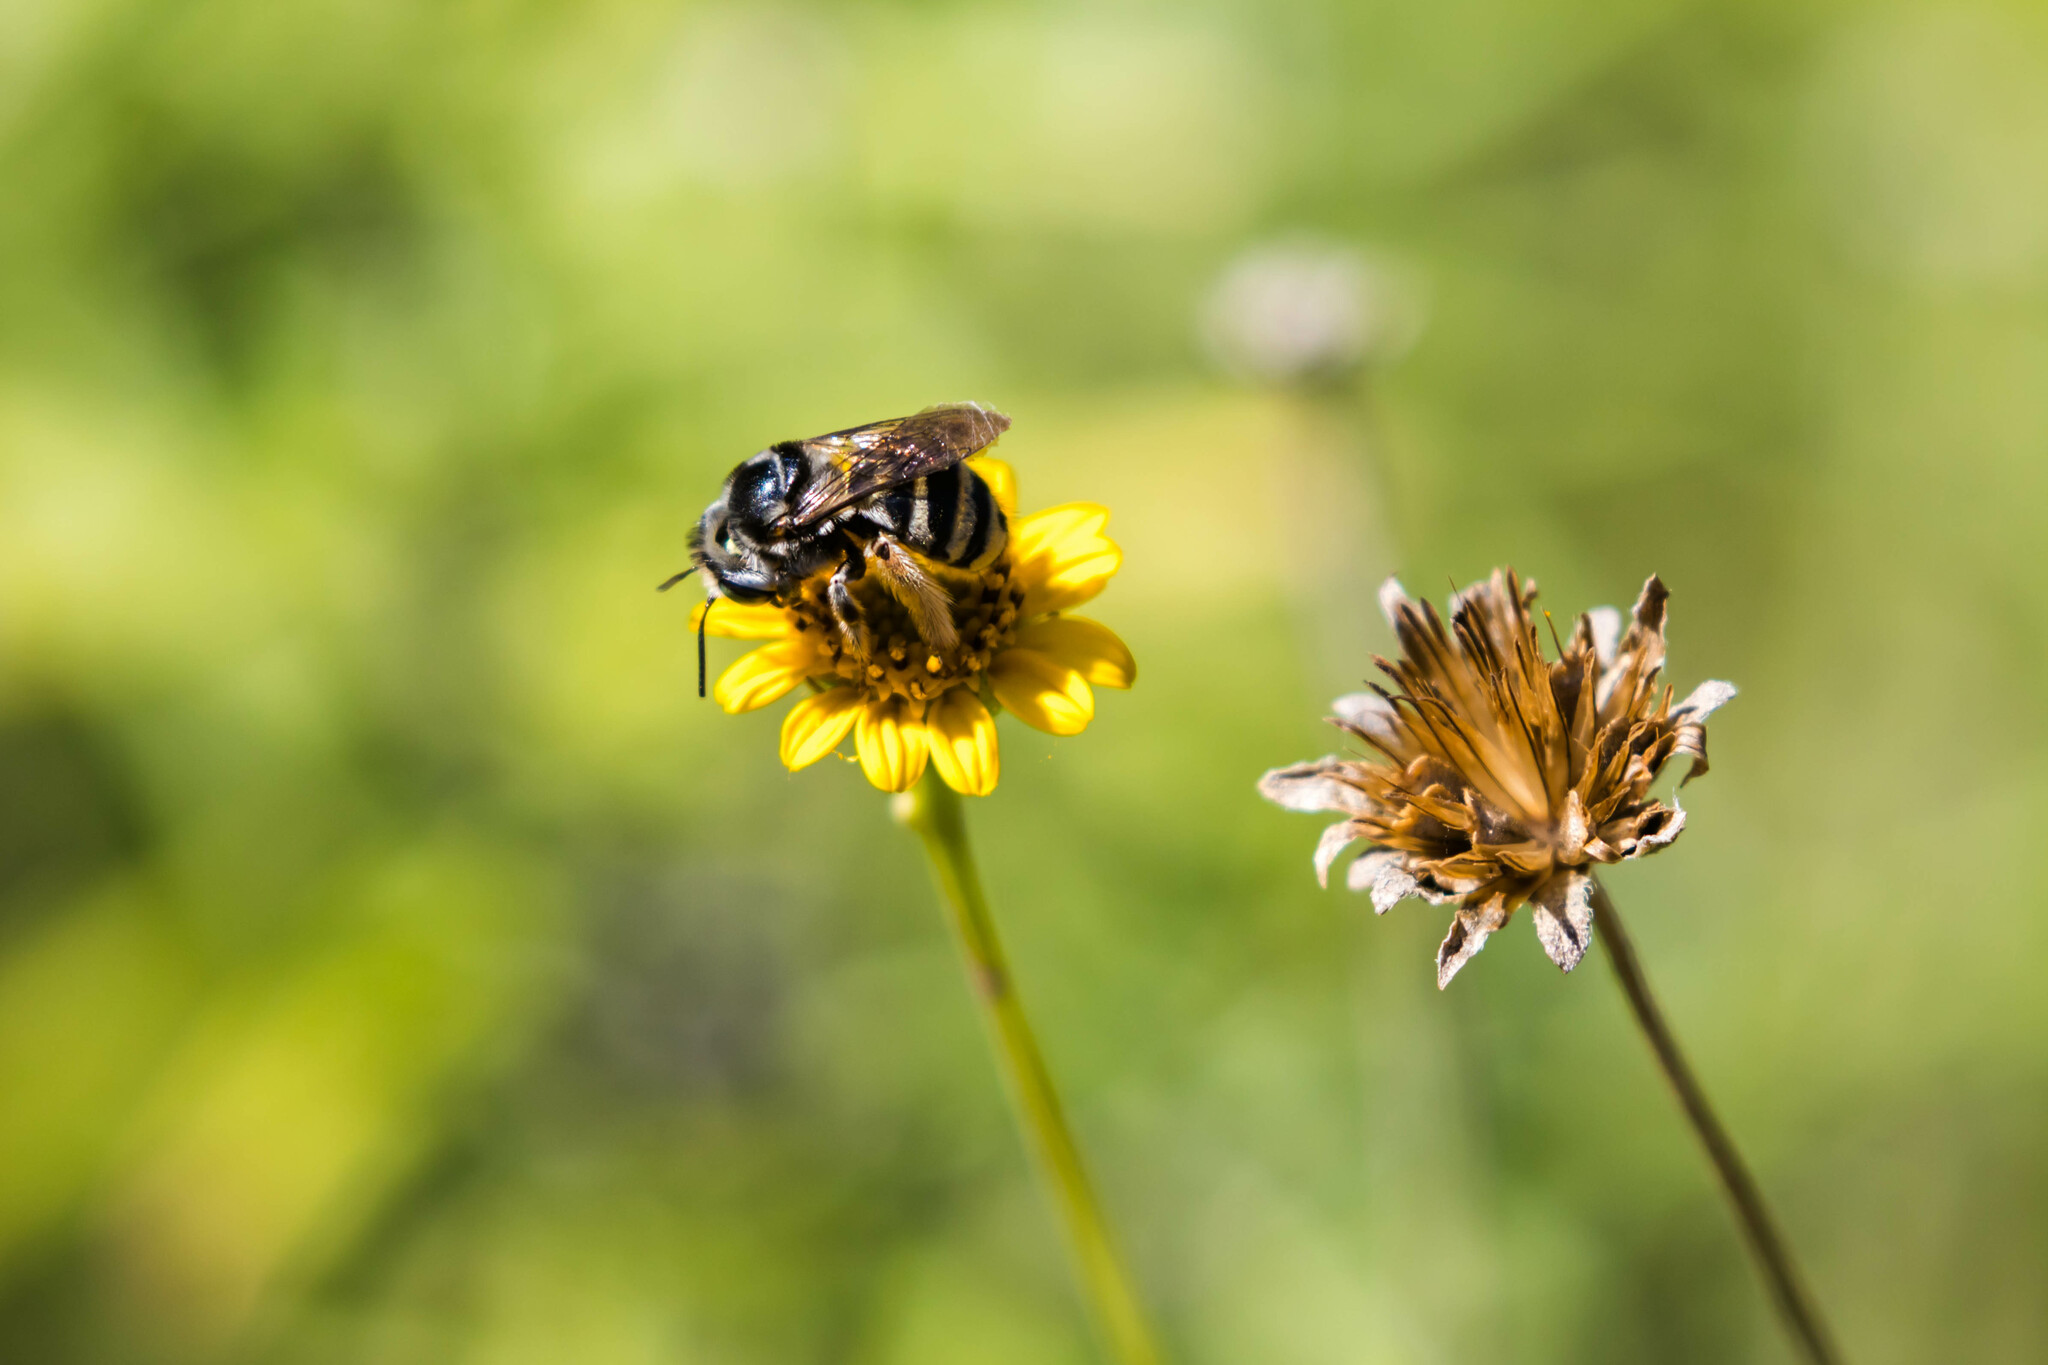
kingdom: Animalia
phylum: Arthropoda
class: Insecta
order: Hymenoptera
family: Apidae
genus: Florilegus
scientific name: Florilegus condignus
